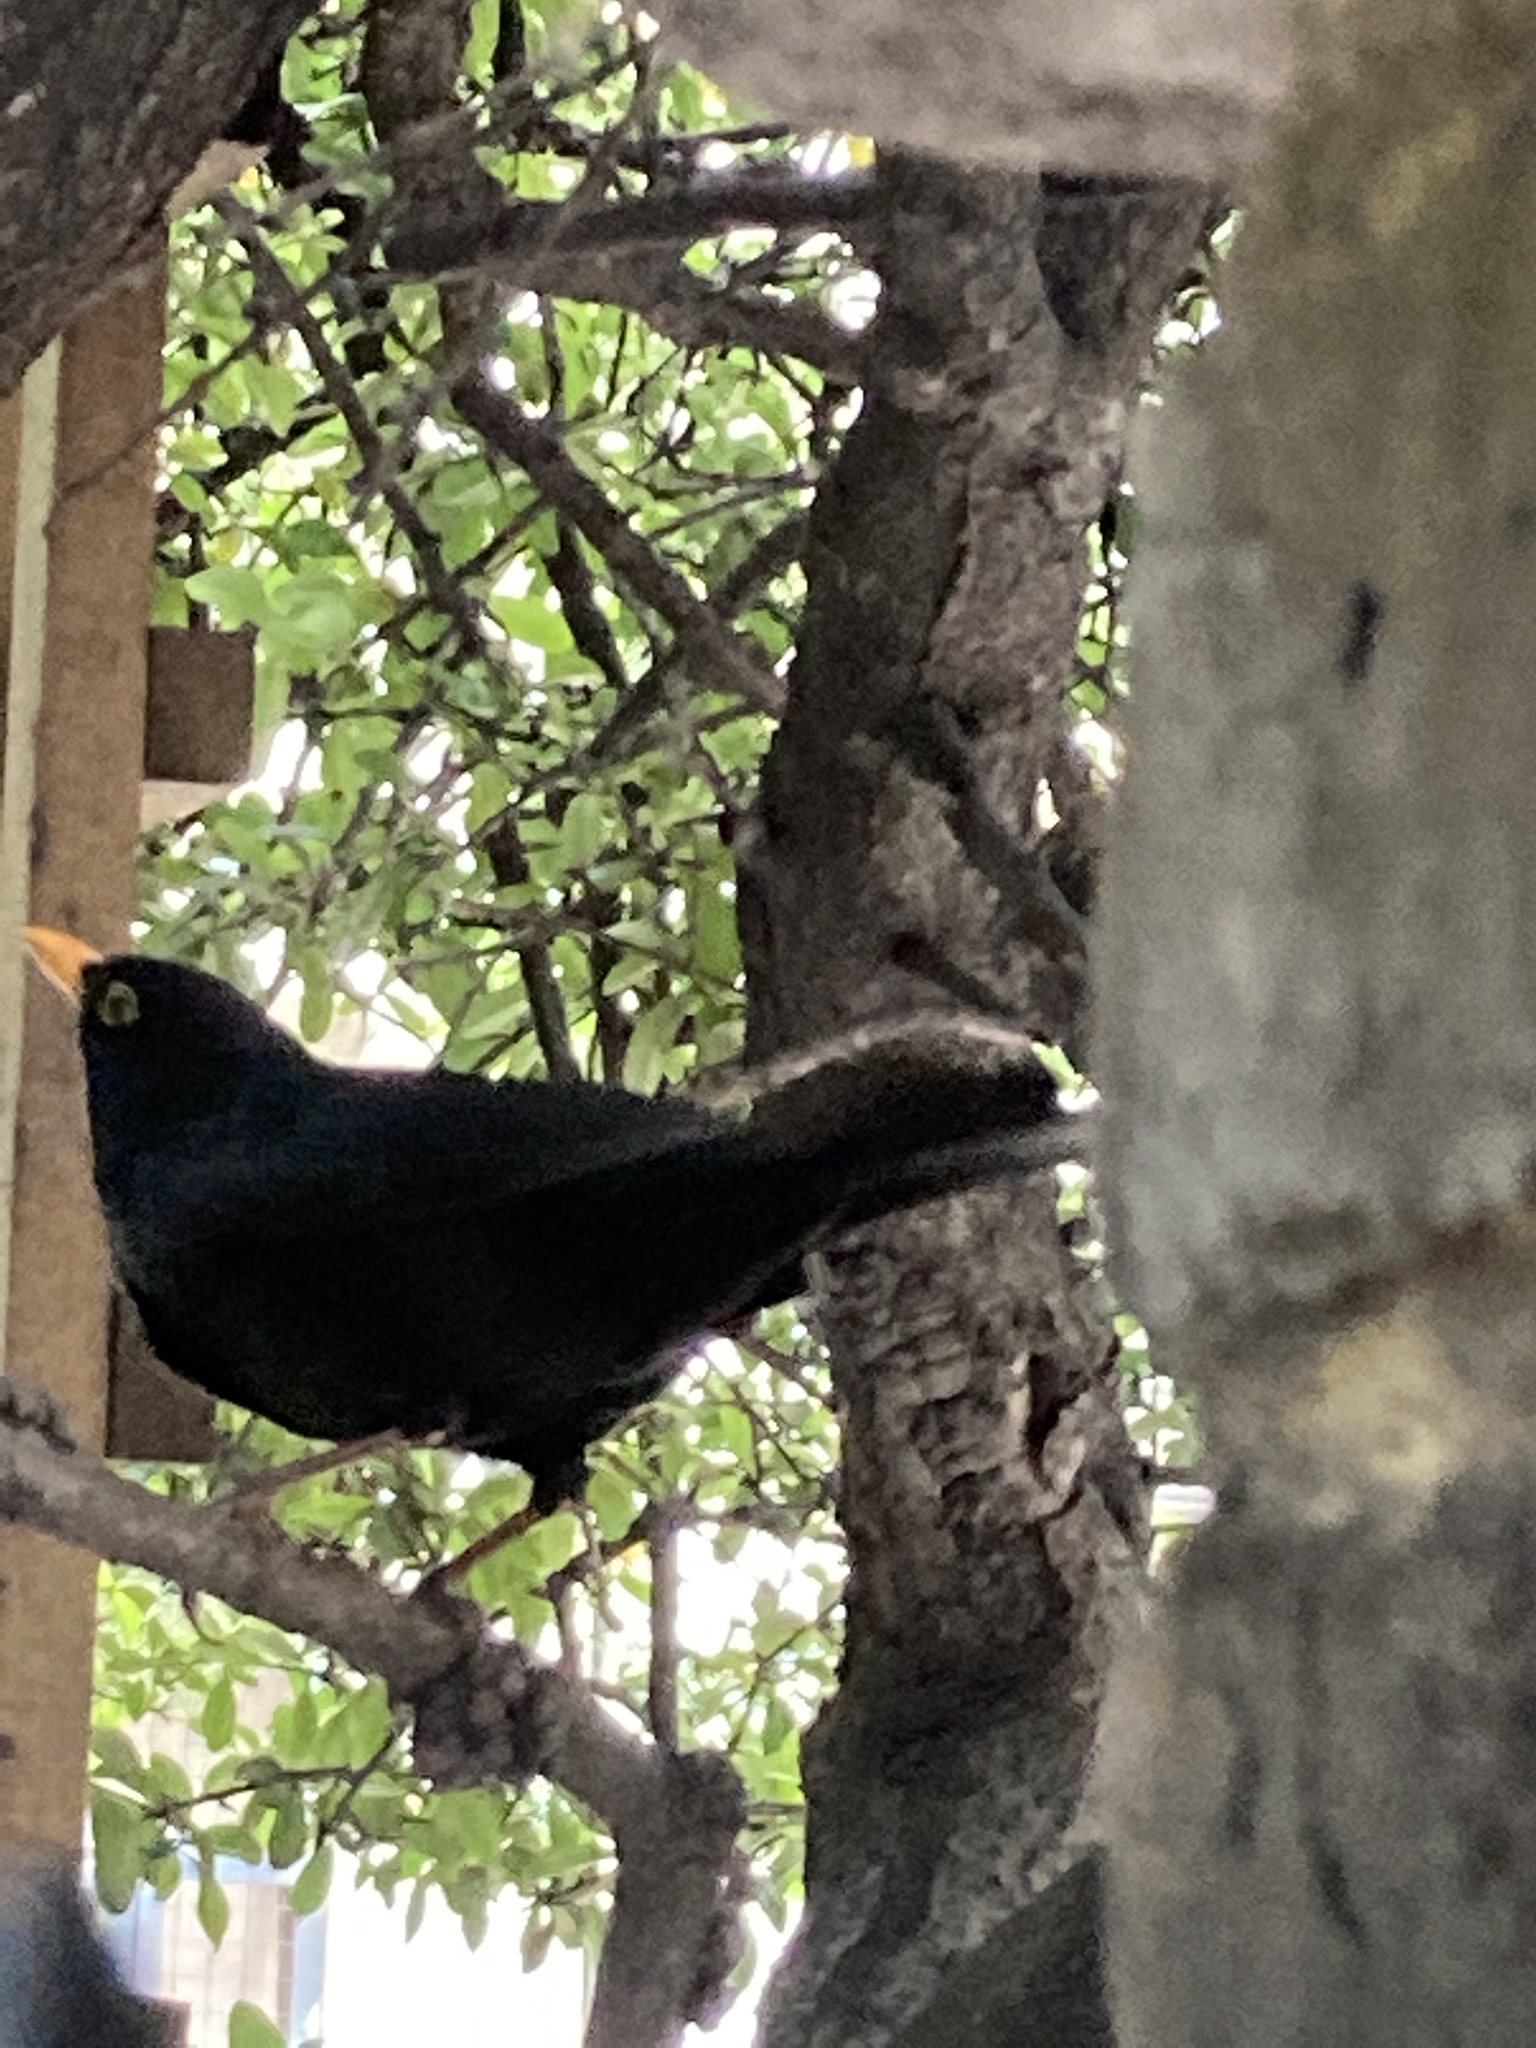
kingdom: Animalia
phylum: Chordata
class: Aves
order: Passeriformes
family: Turdidae
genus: Turdus
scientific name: Turdus merula
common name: Common blackbird
